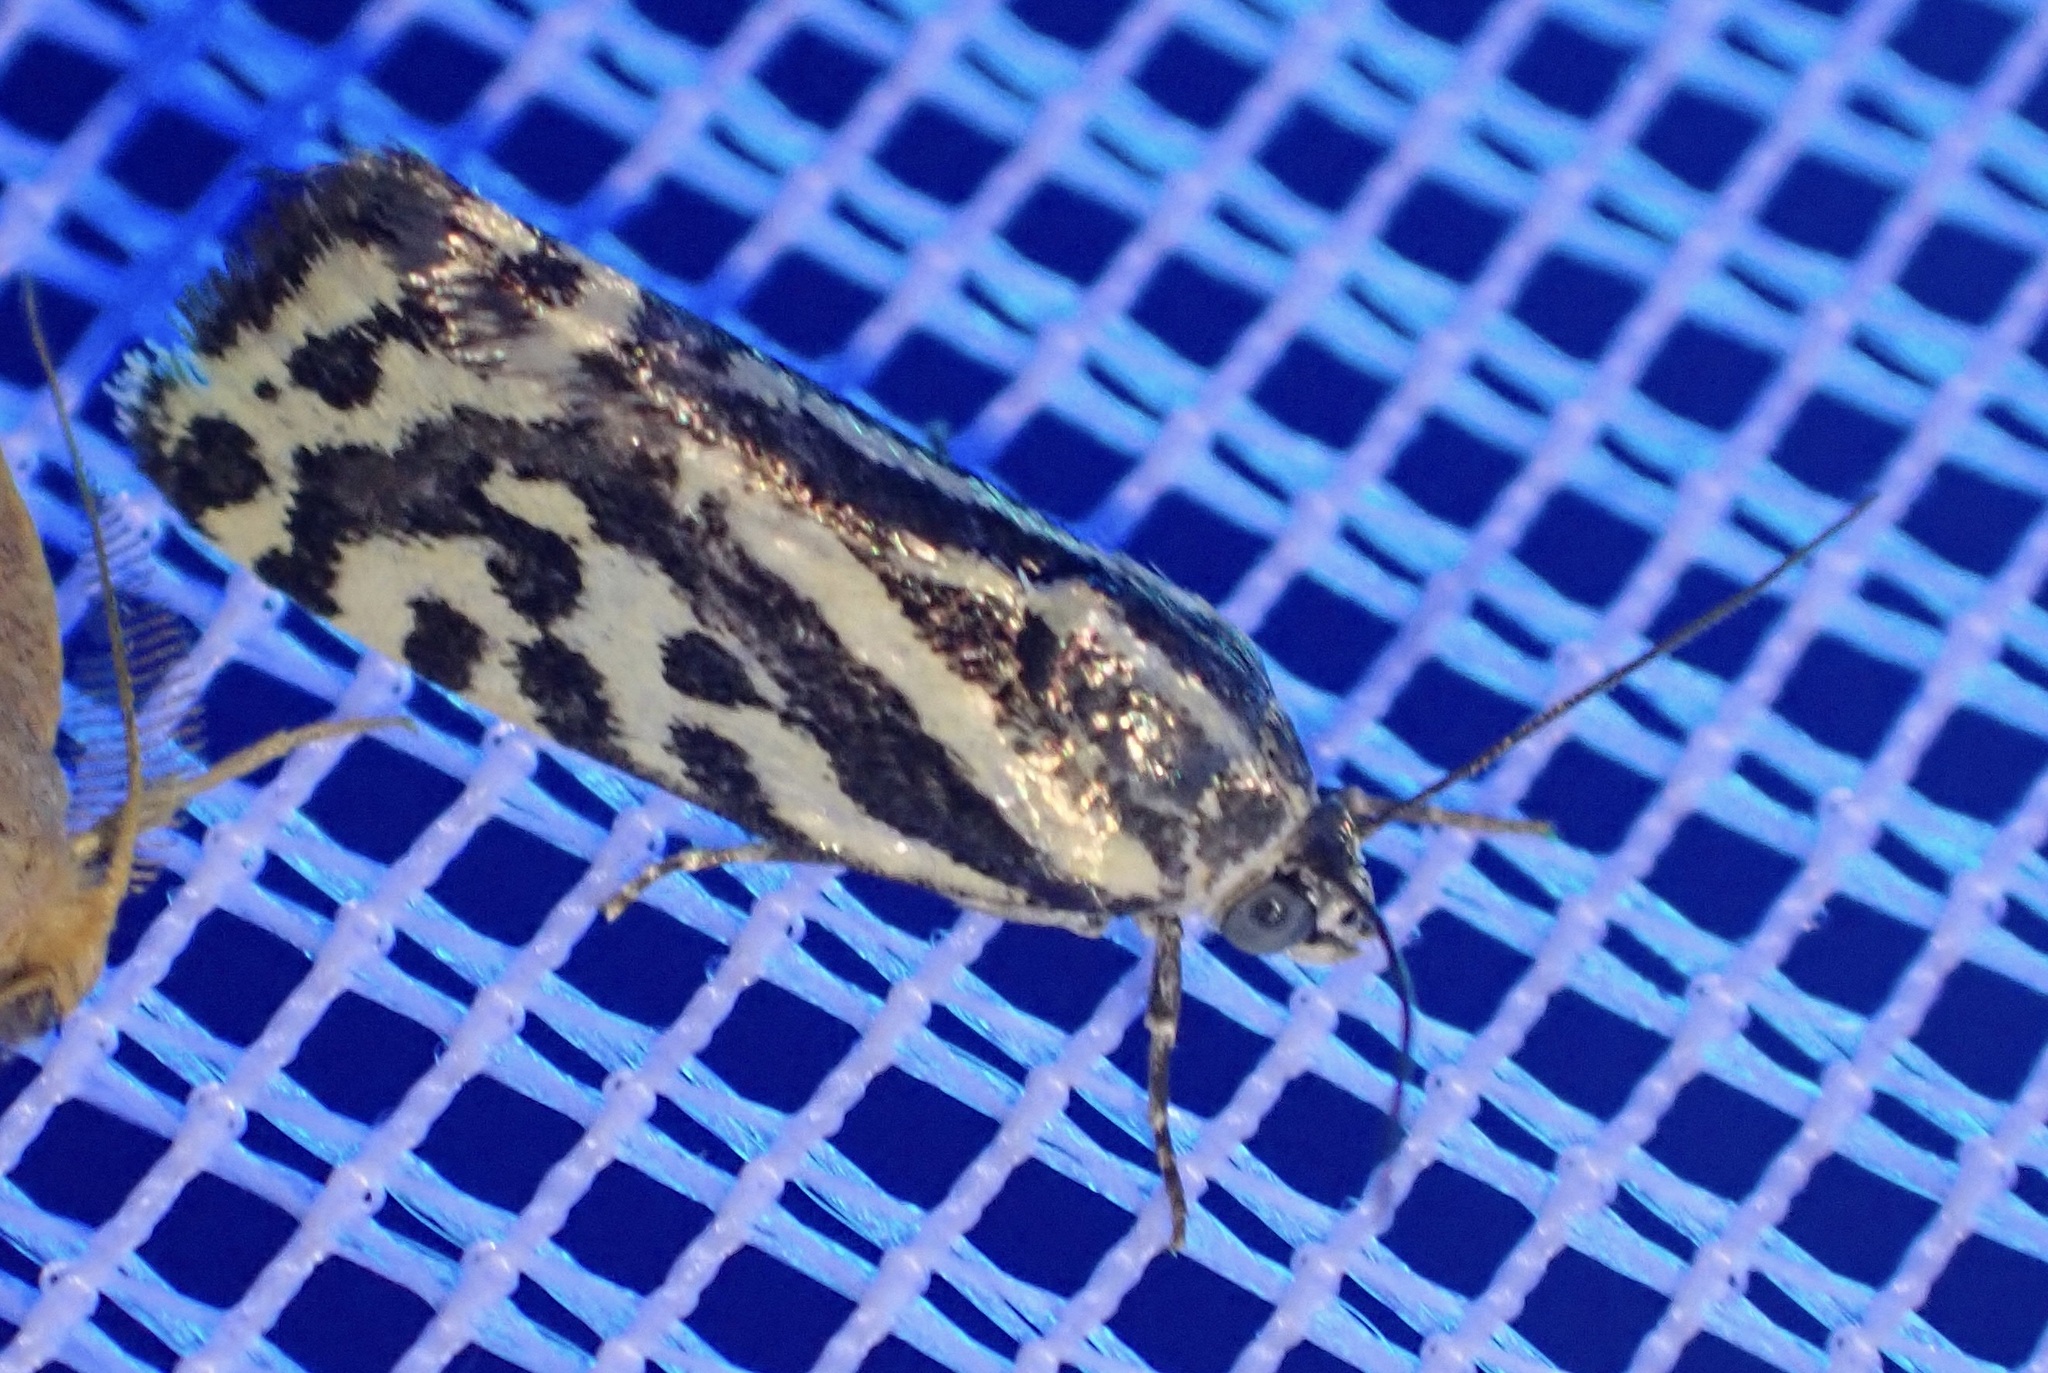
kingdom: Animalia
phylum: Arthropoda
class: Insecta
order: Lepidoptera
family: Noctuidae
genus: Acontia
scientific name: Acontia trabealis
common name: Spotted sulphur
